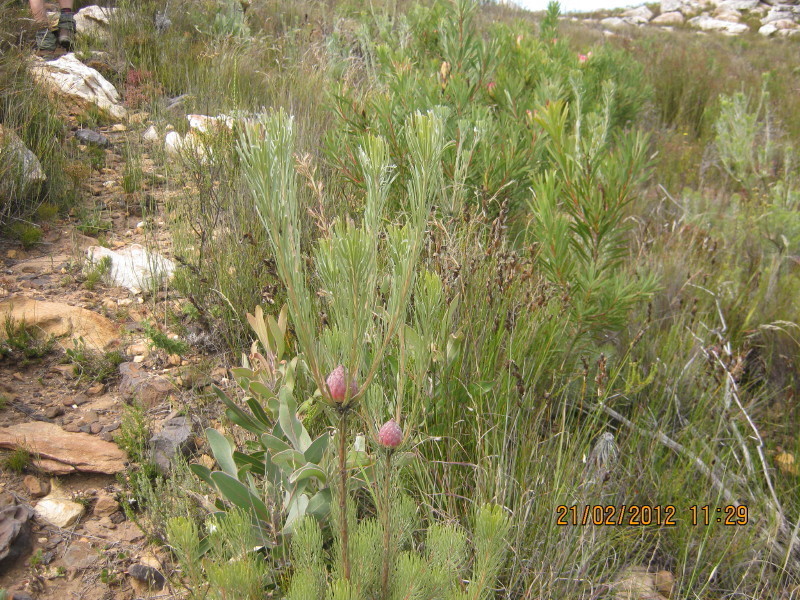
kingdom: Plantae
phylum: Tracheophyta
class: Magnoliopsida
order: Proteales
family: Proteaceae
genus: Leucadendron
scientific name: Leucadendron album
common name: Linear-leaf conebush
